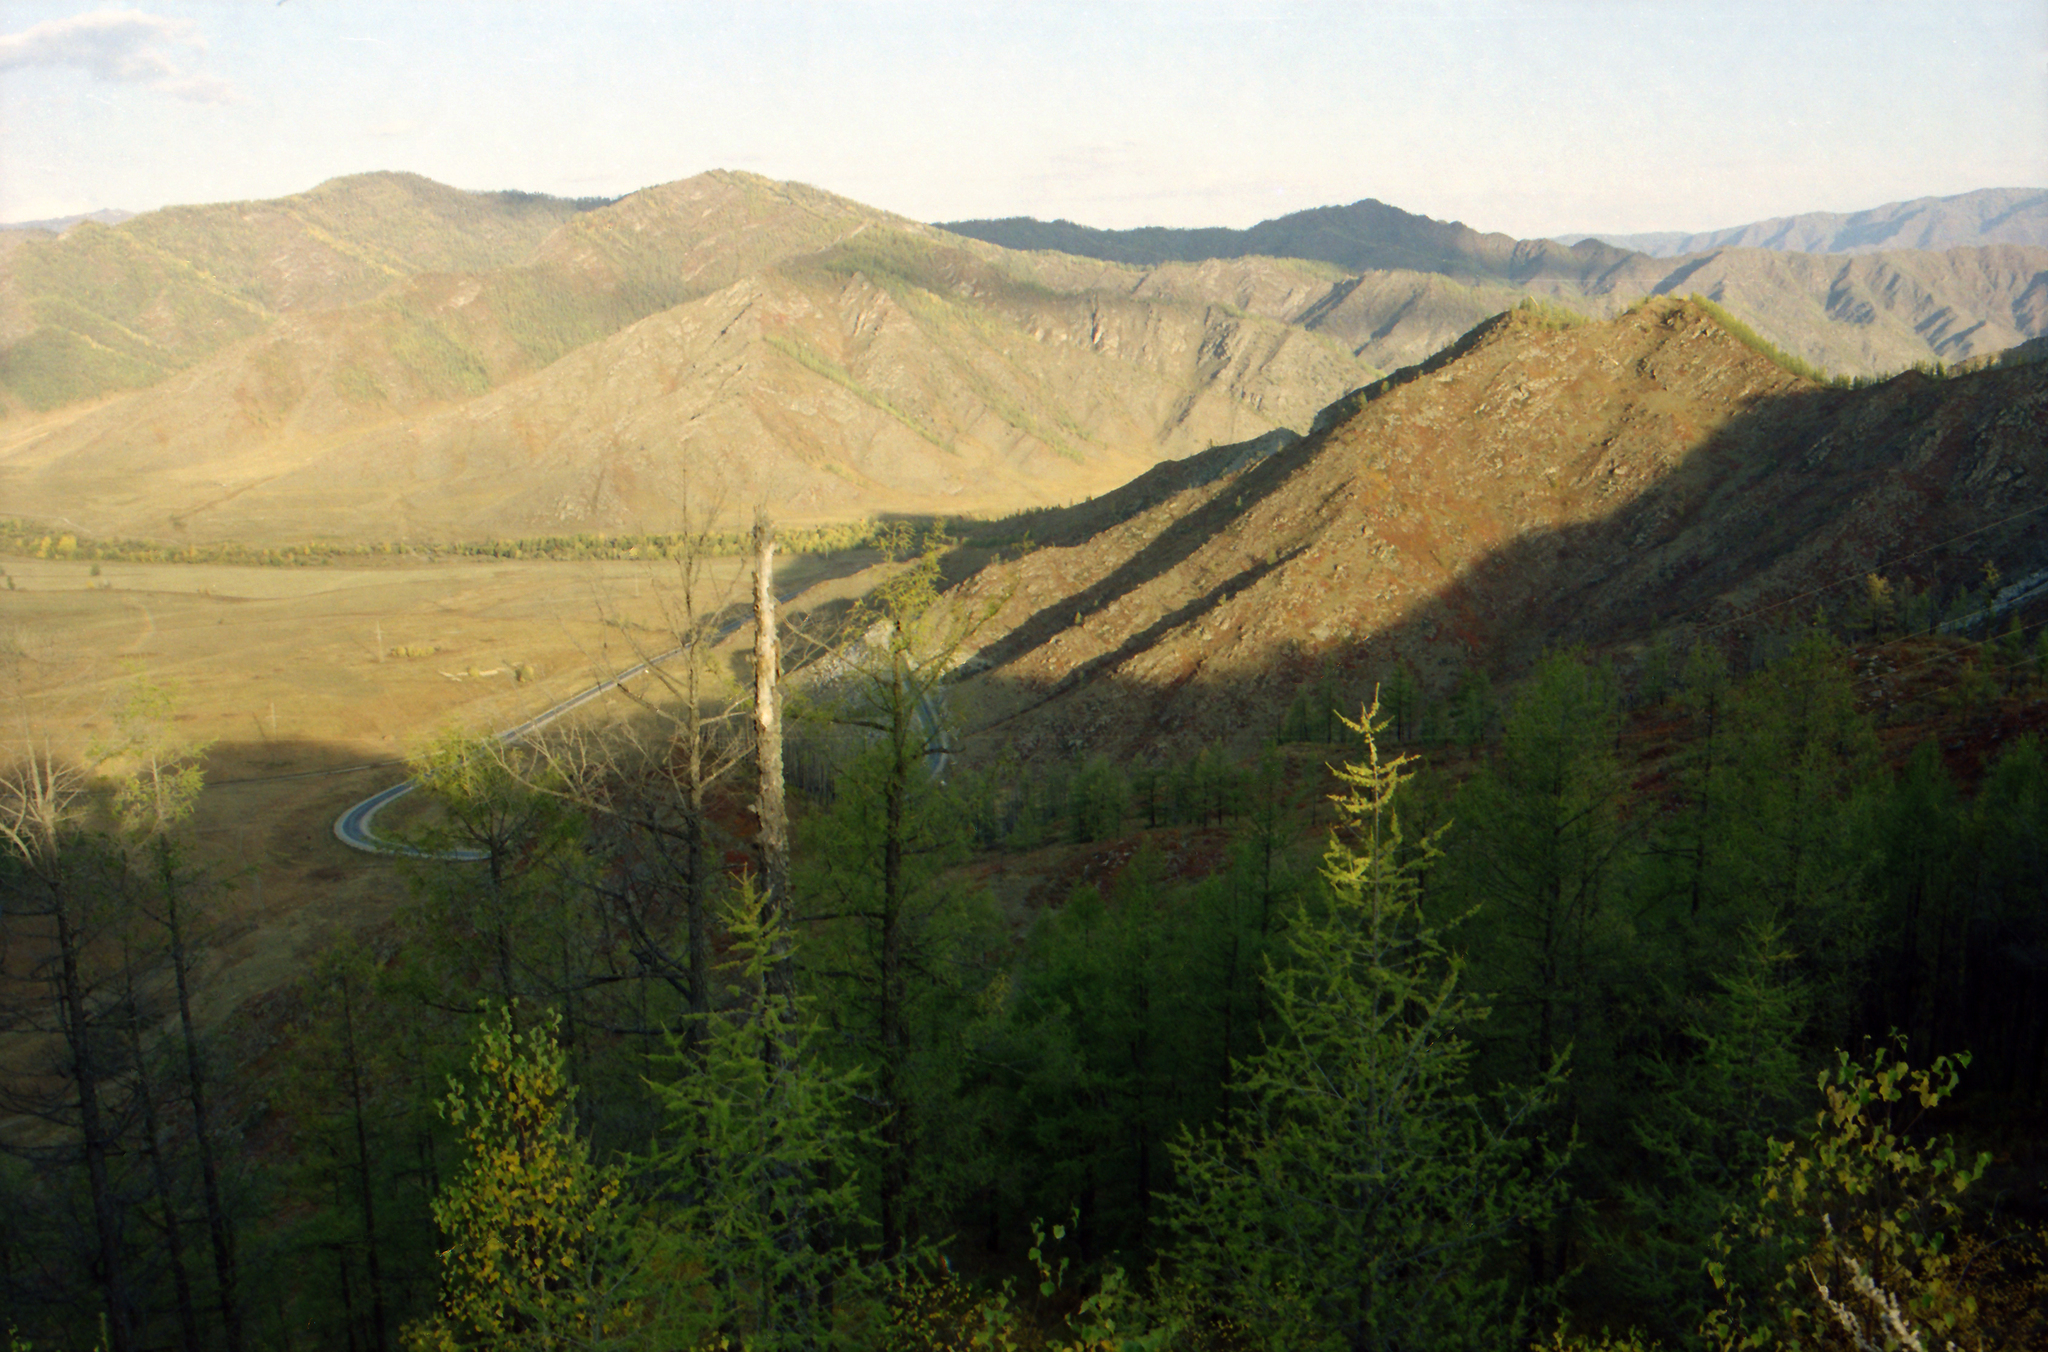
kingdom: Plantae
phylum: Tracheophyta
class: Pinopsida
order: Pinales
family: Pinaceae
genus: Larix
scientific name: Larix sibirica
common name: Siberian larch
